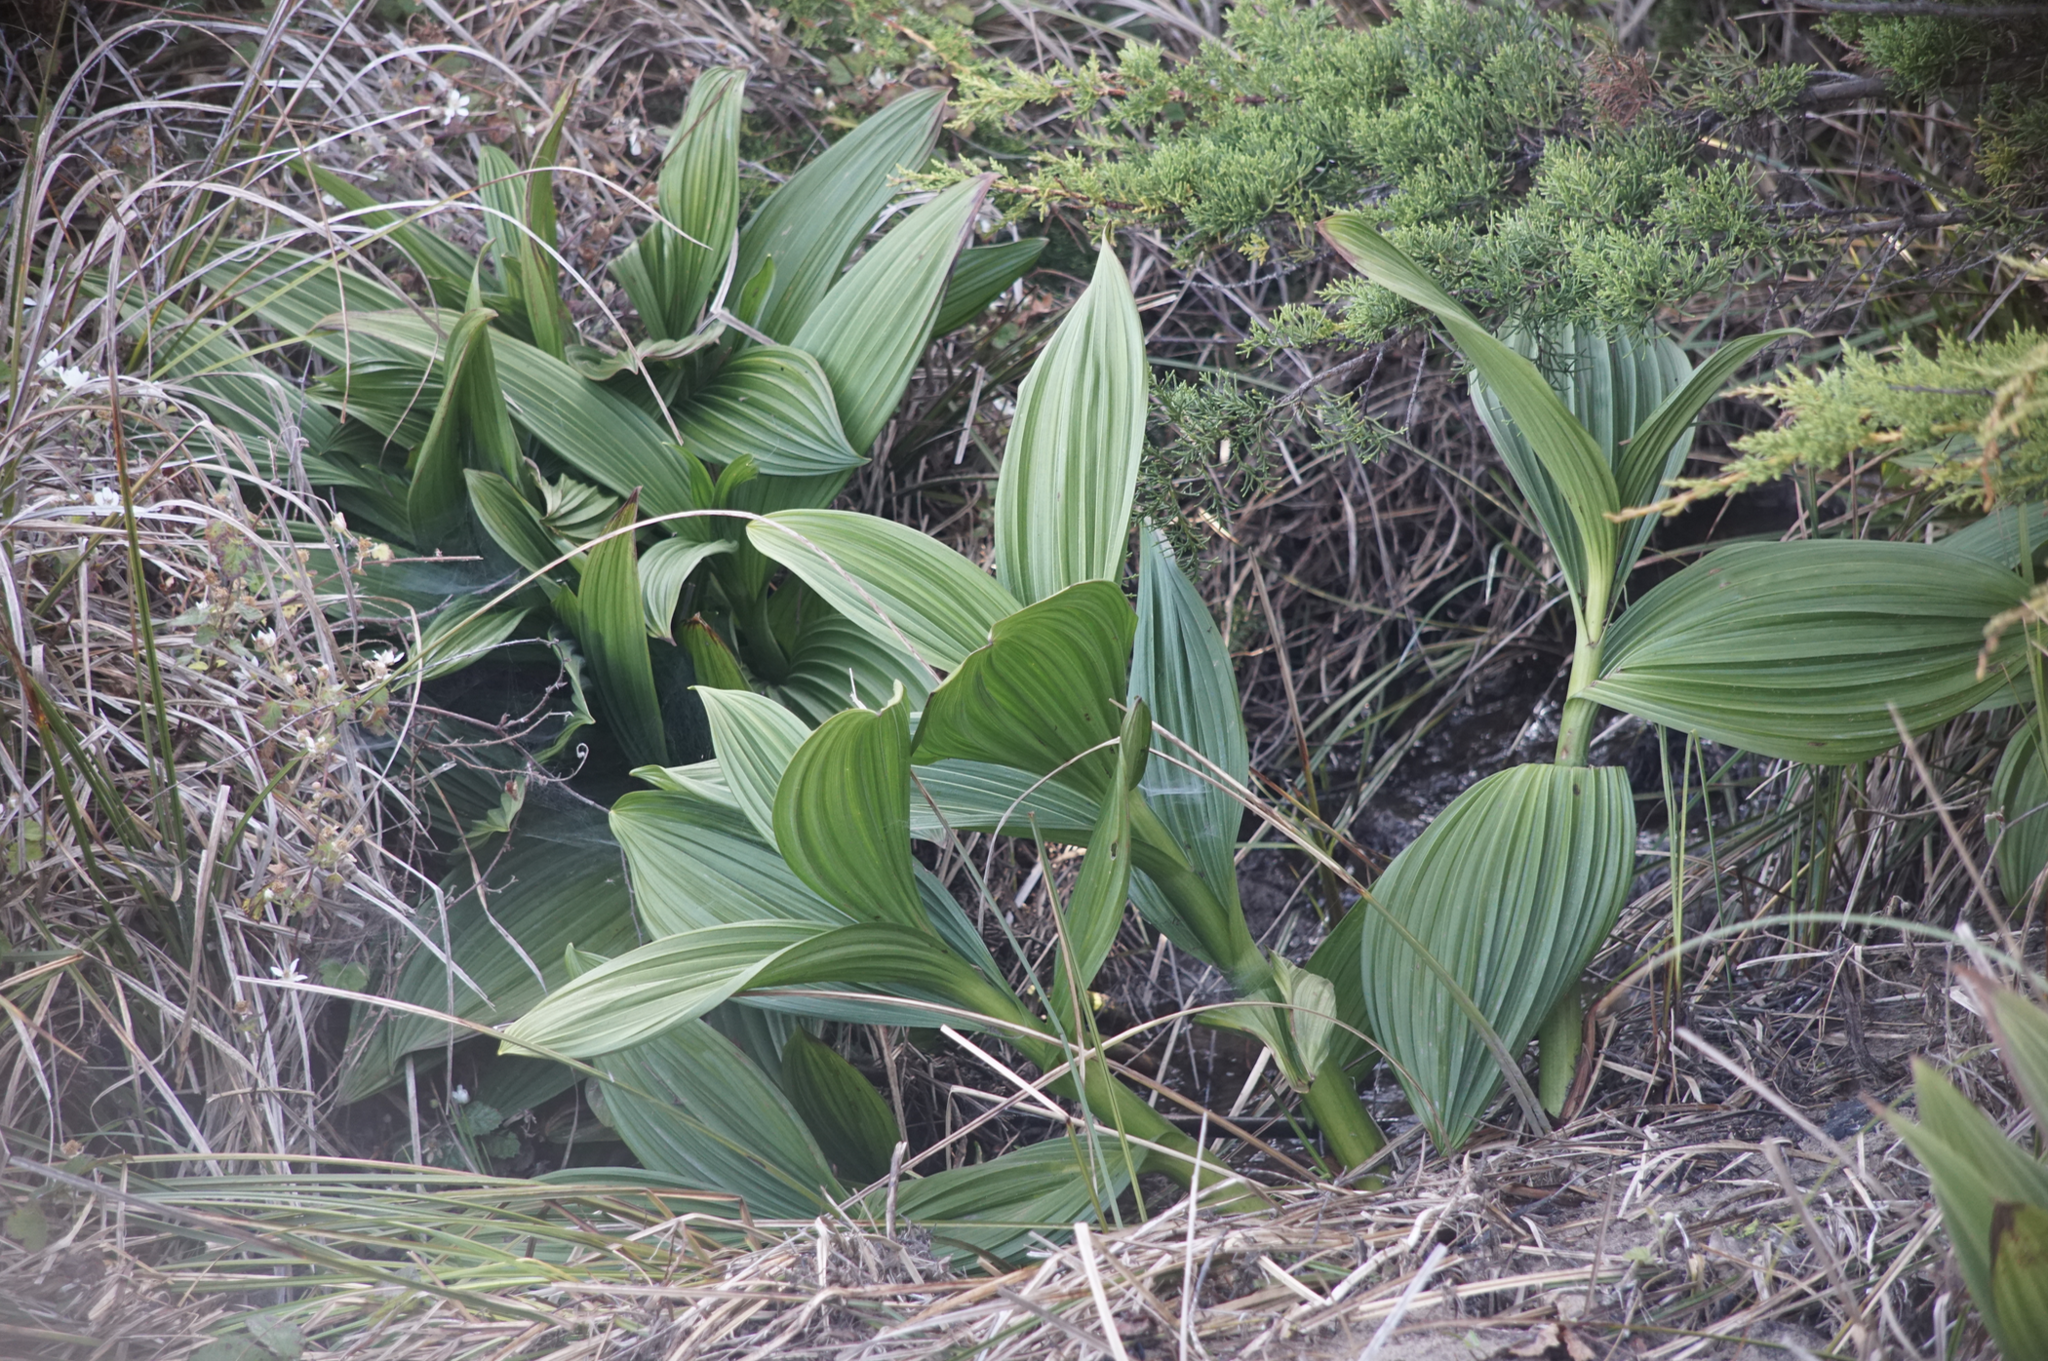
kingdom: Plantae
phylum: Tracheophyta
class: Liliopsida
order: Liliales
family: Melanthiaceae
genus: Veratrum
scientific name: Veratrum fimbriatum
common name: Fringe false hellobore
